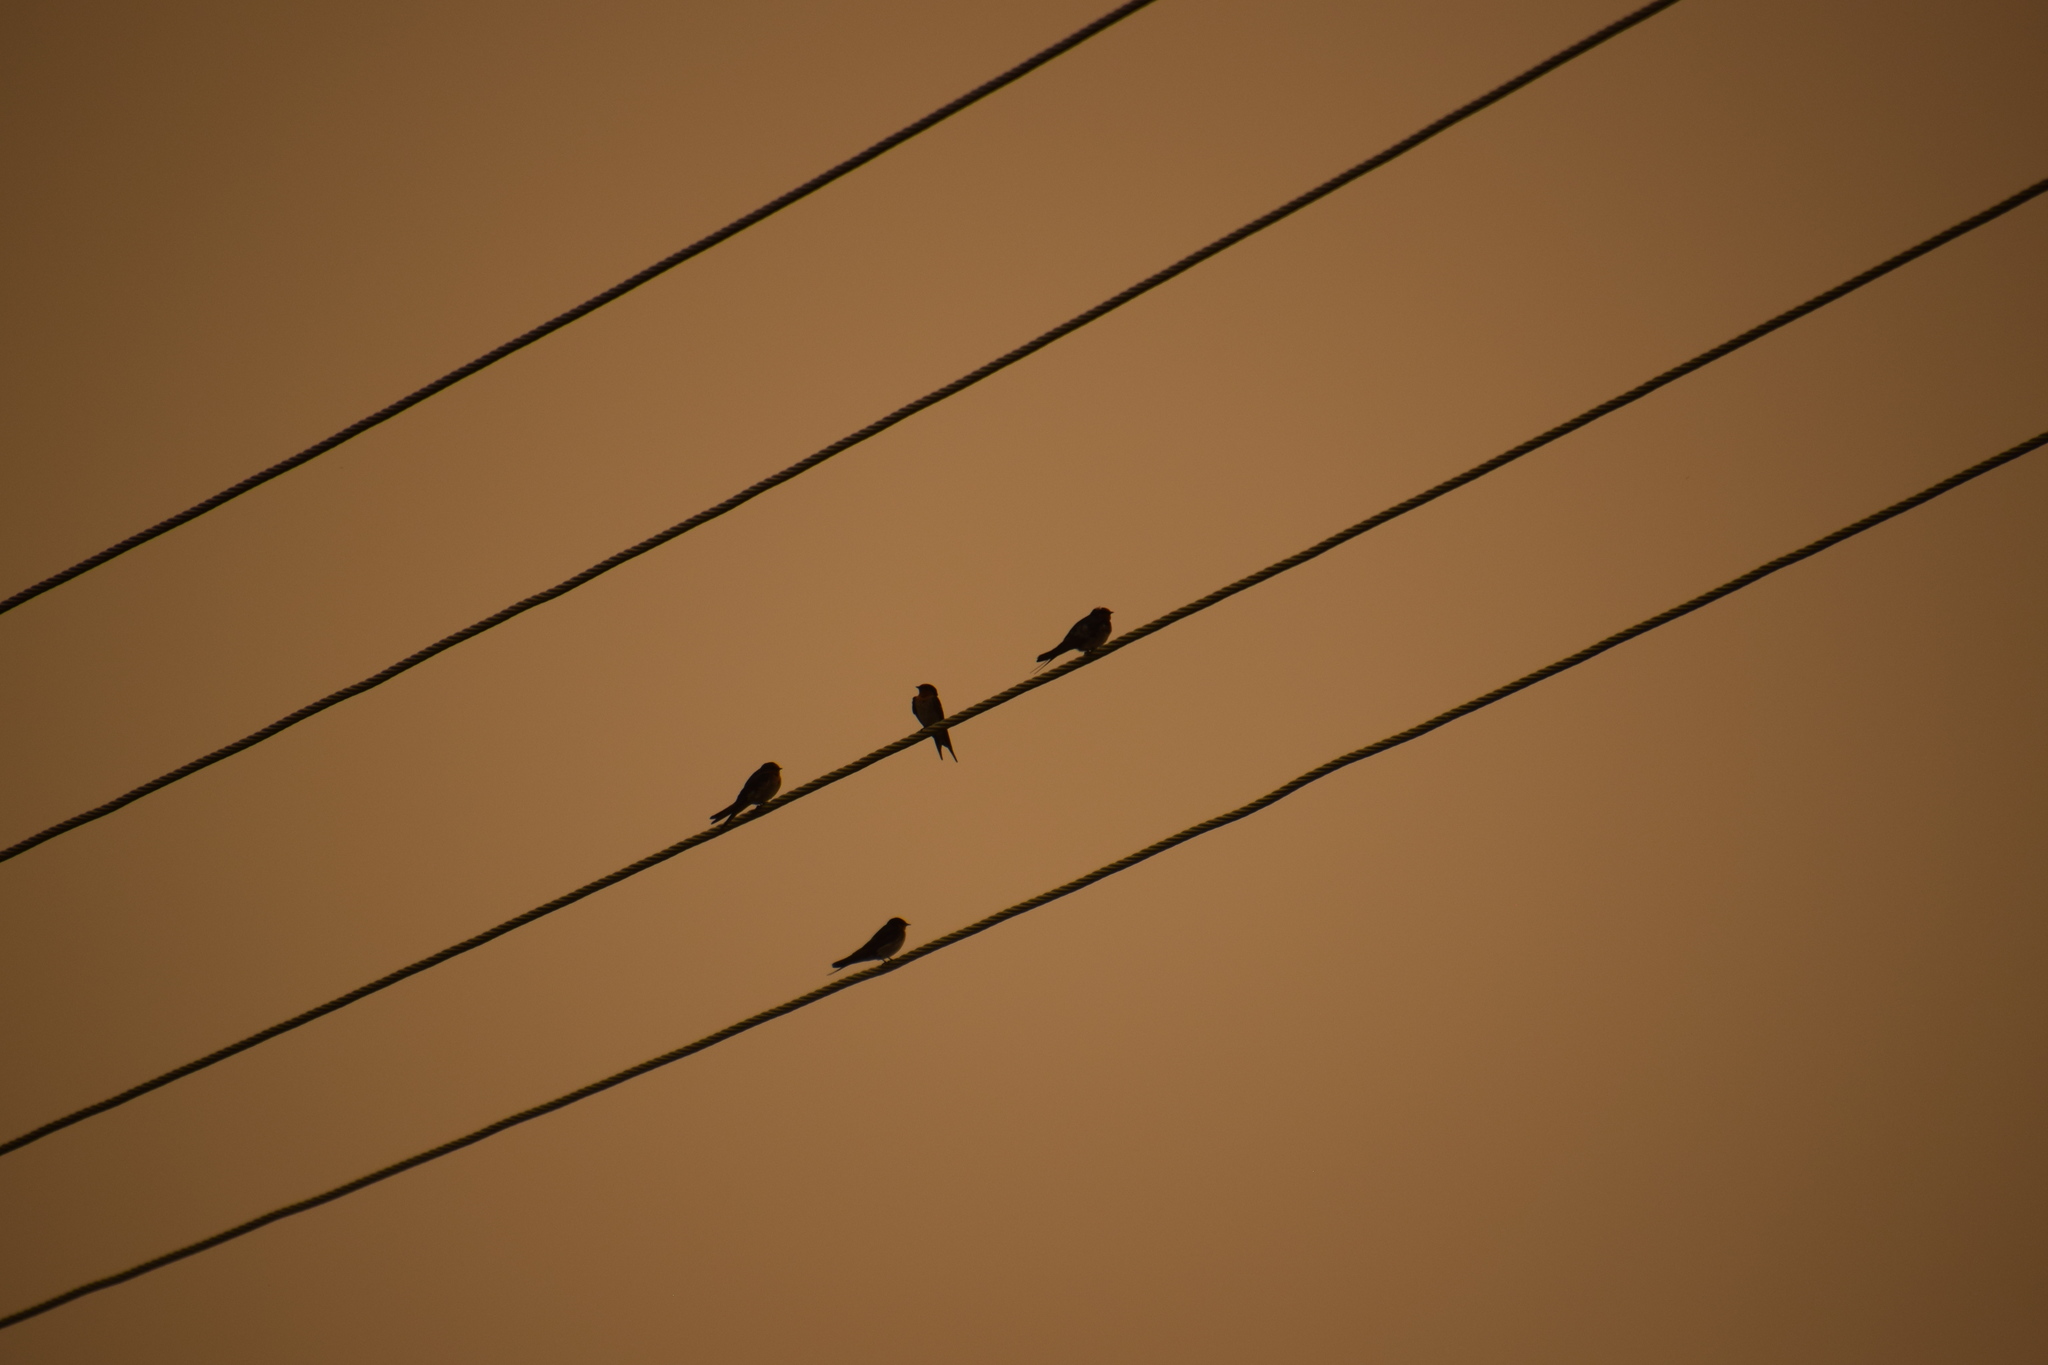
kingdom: Animalia
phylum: Chordata
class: Aves
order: Passeriformes
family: Hirundinidae
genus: Hirundo
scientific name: Hirundo neoxena
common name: Welcome swallow
